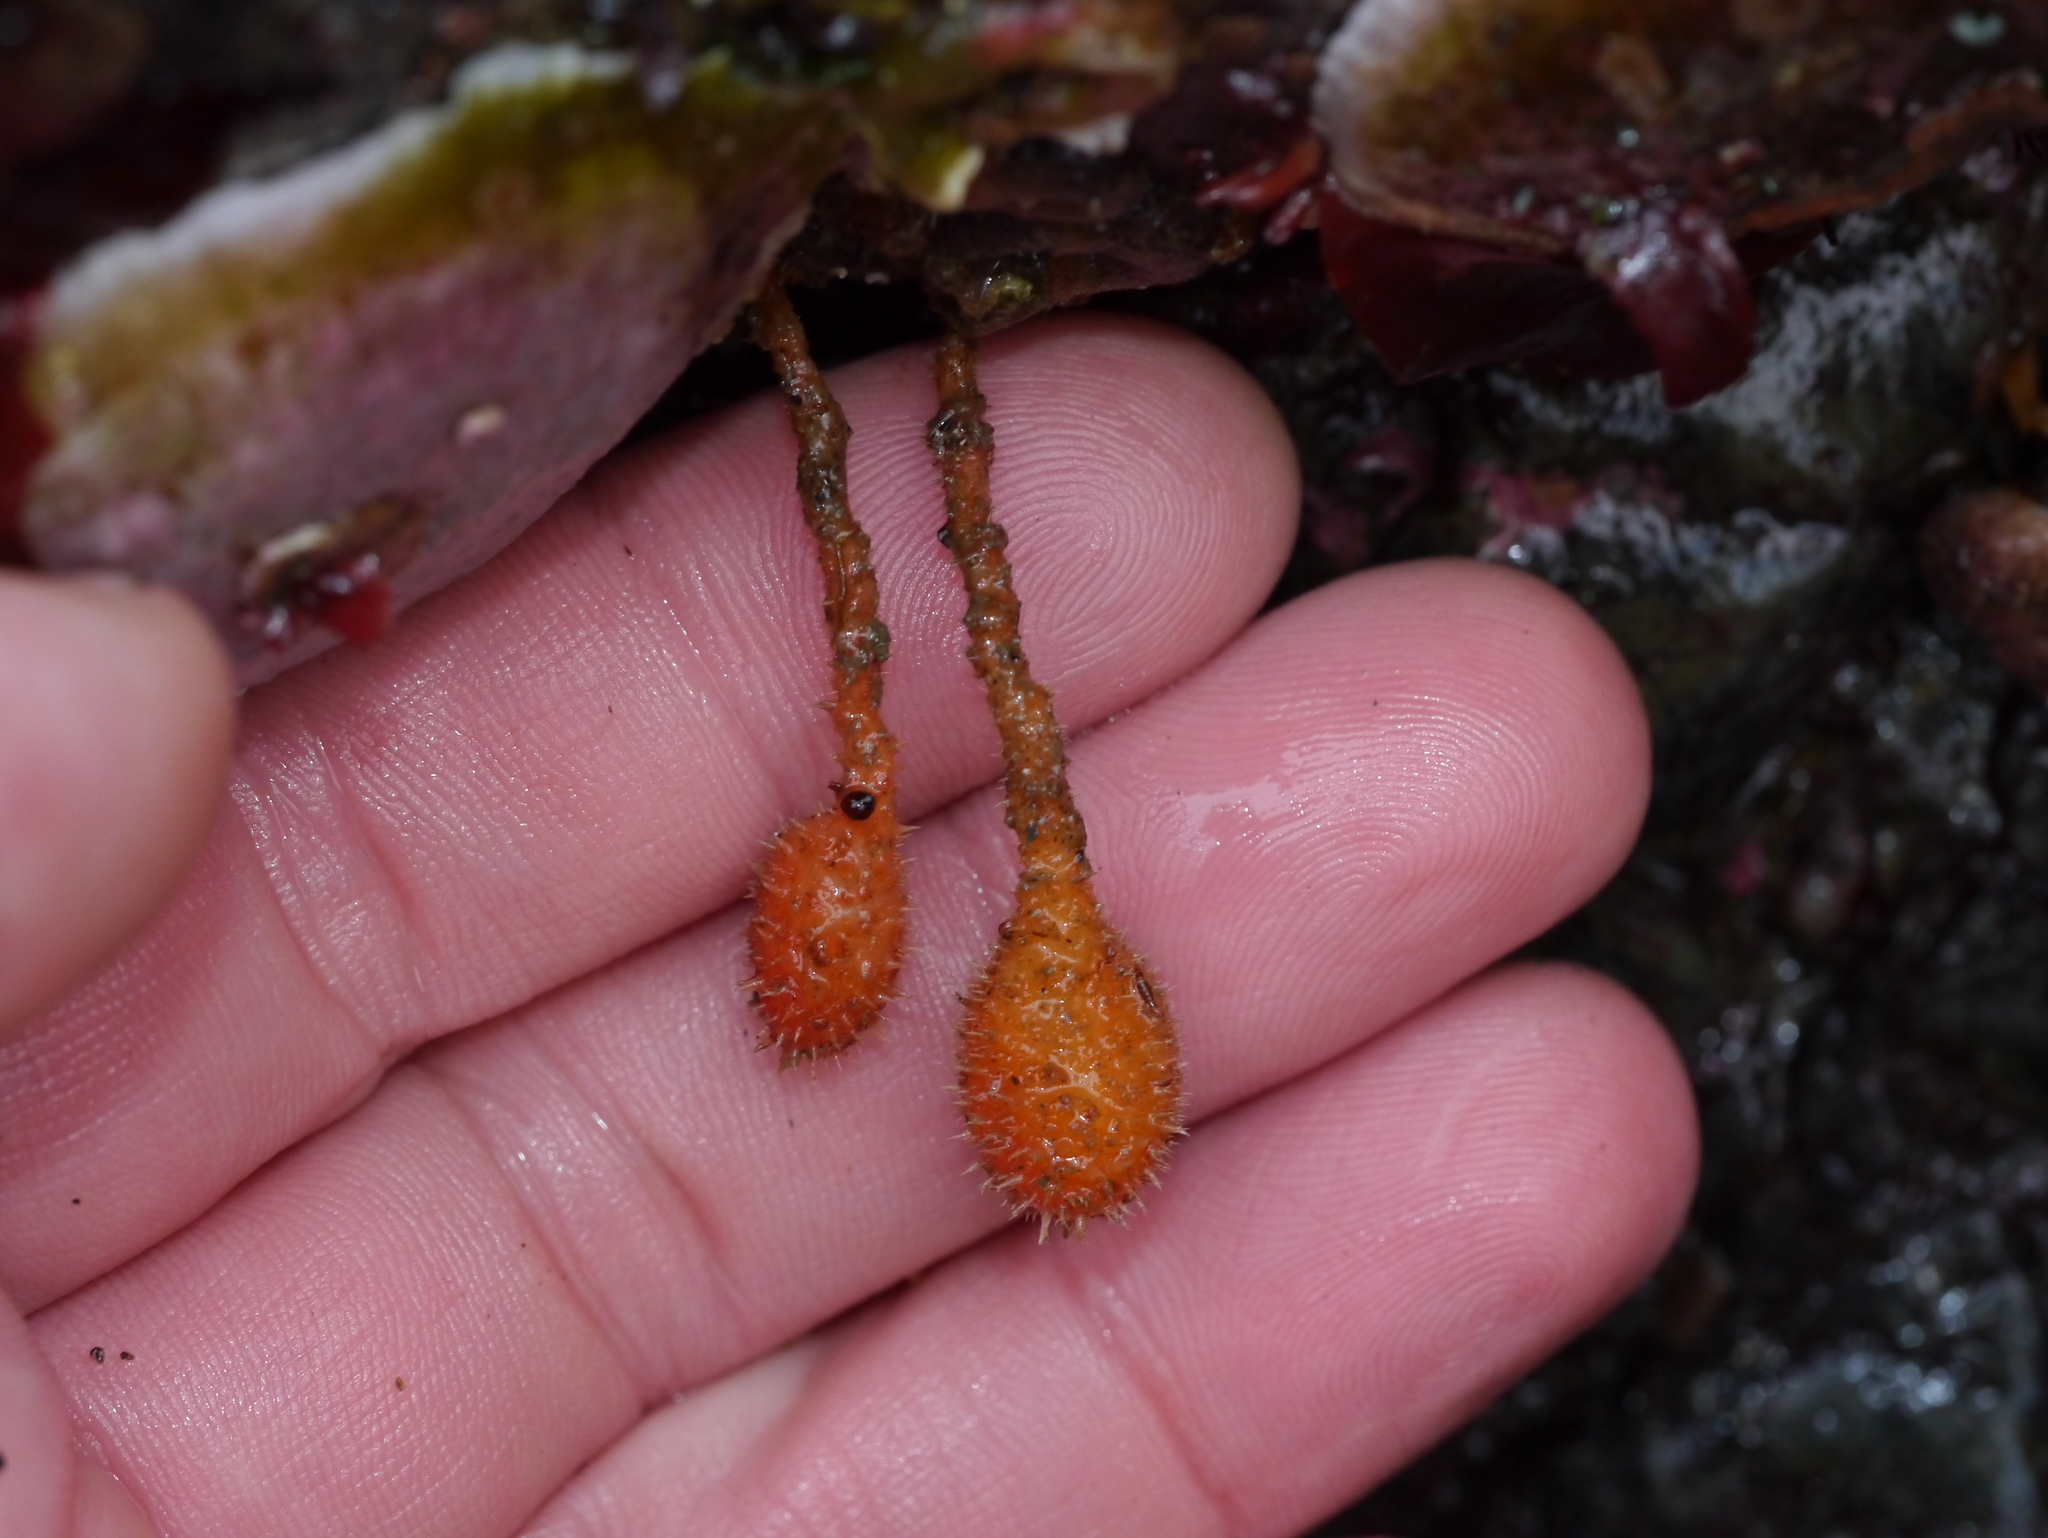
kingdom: Animalia
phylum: Chordata
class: Ascidiacea
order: Stolidobranchia
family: Pyuridae
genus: Boltenia
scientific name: Boltenia villosa
